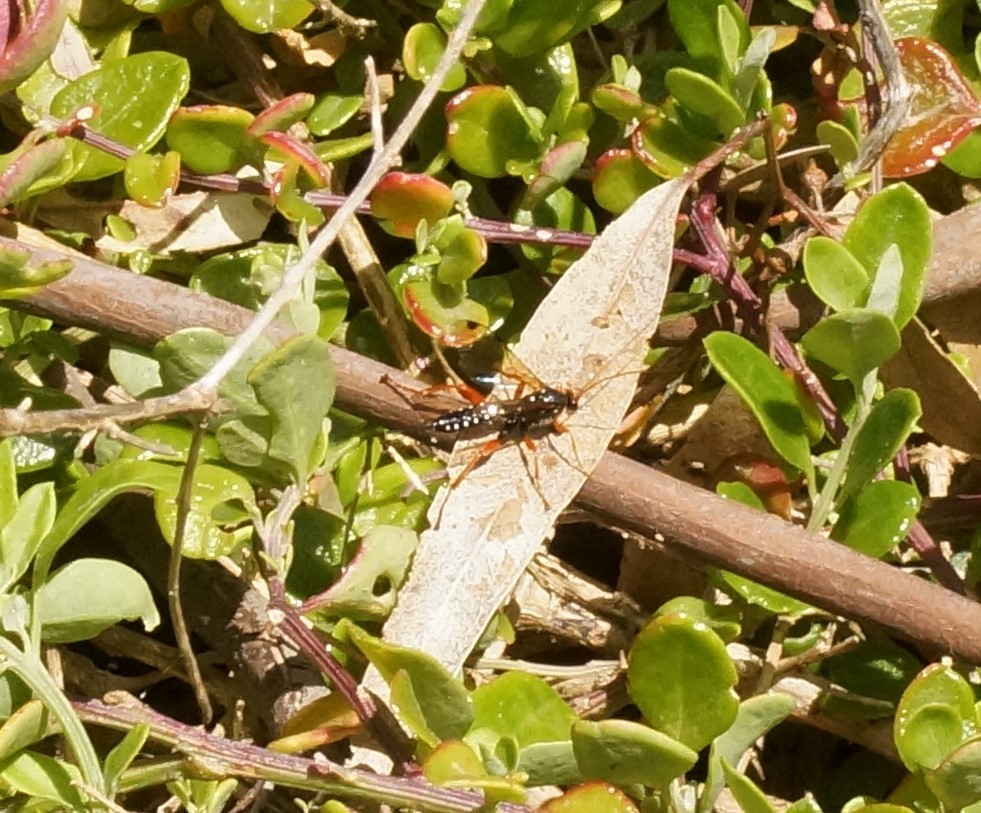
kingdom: Animalia
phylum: Arthropoda
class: Insecta
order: Hymenoptera
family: Ichneumonidae
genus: Echthromorpha
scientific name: Echthromorpha intricatoria
